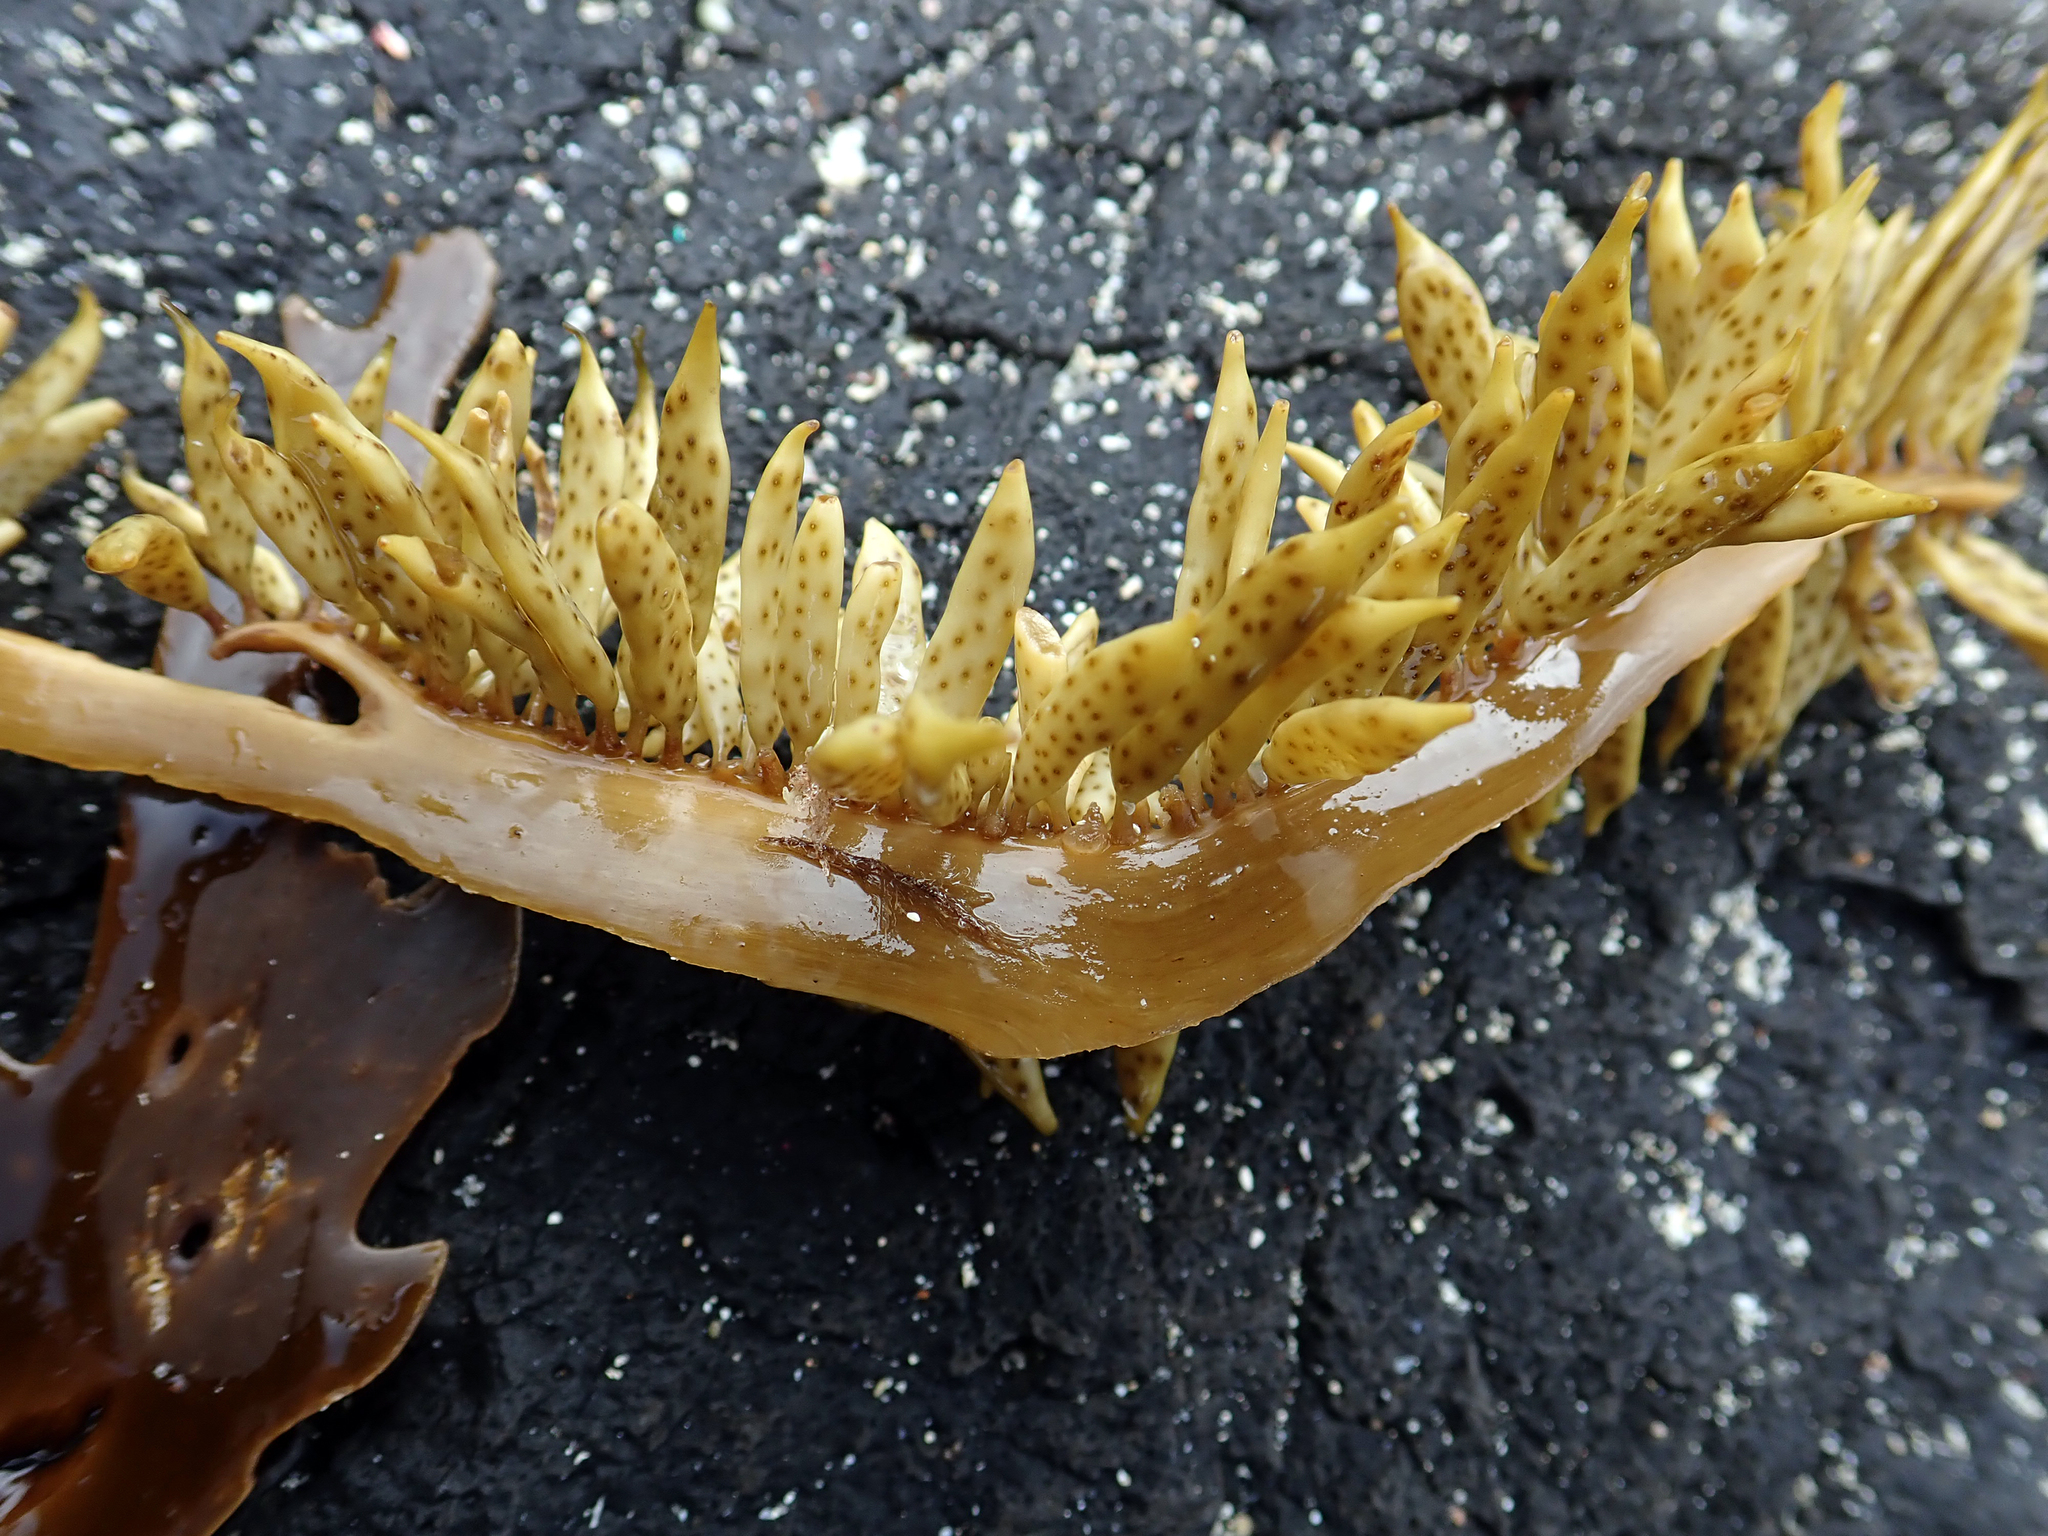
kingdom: Chromista
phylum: Ochrophyta
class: Phaeophyceae
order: Fucales
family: Seirococcaceae
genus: Marginariella
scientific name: Marginariella urvilliana
